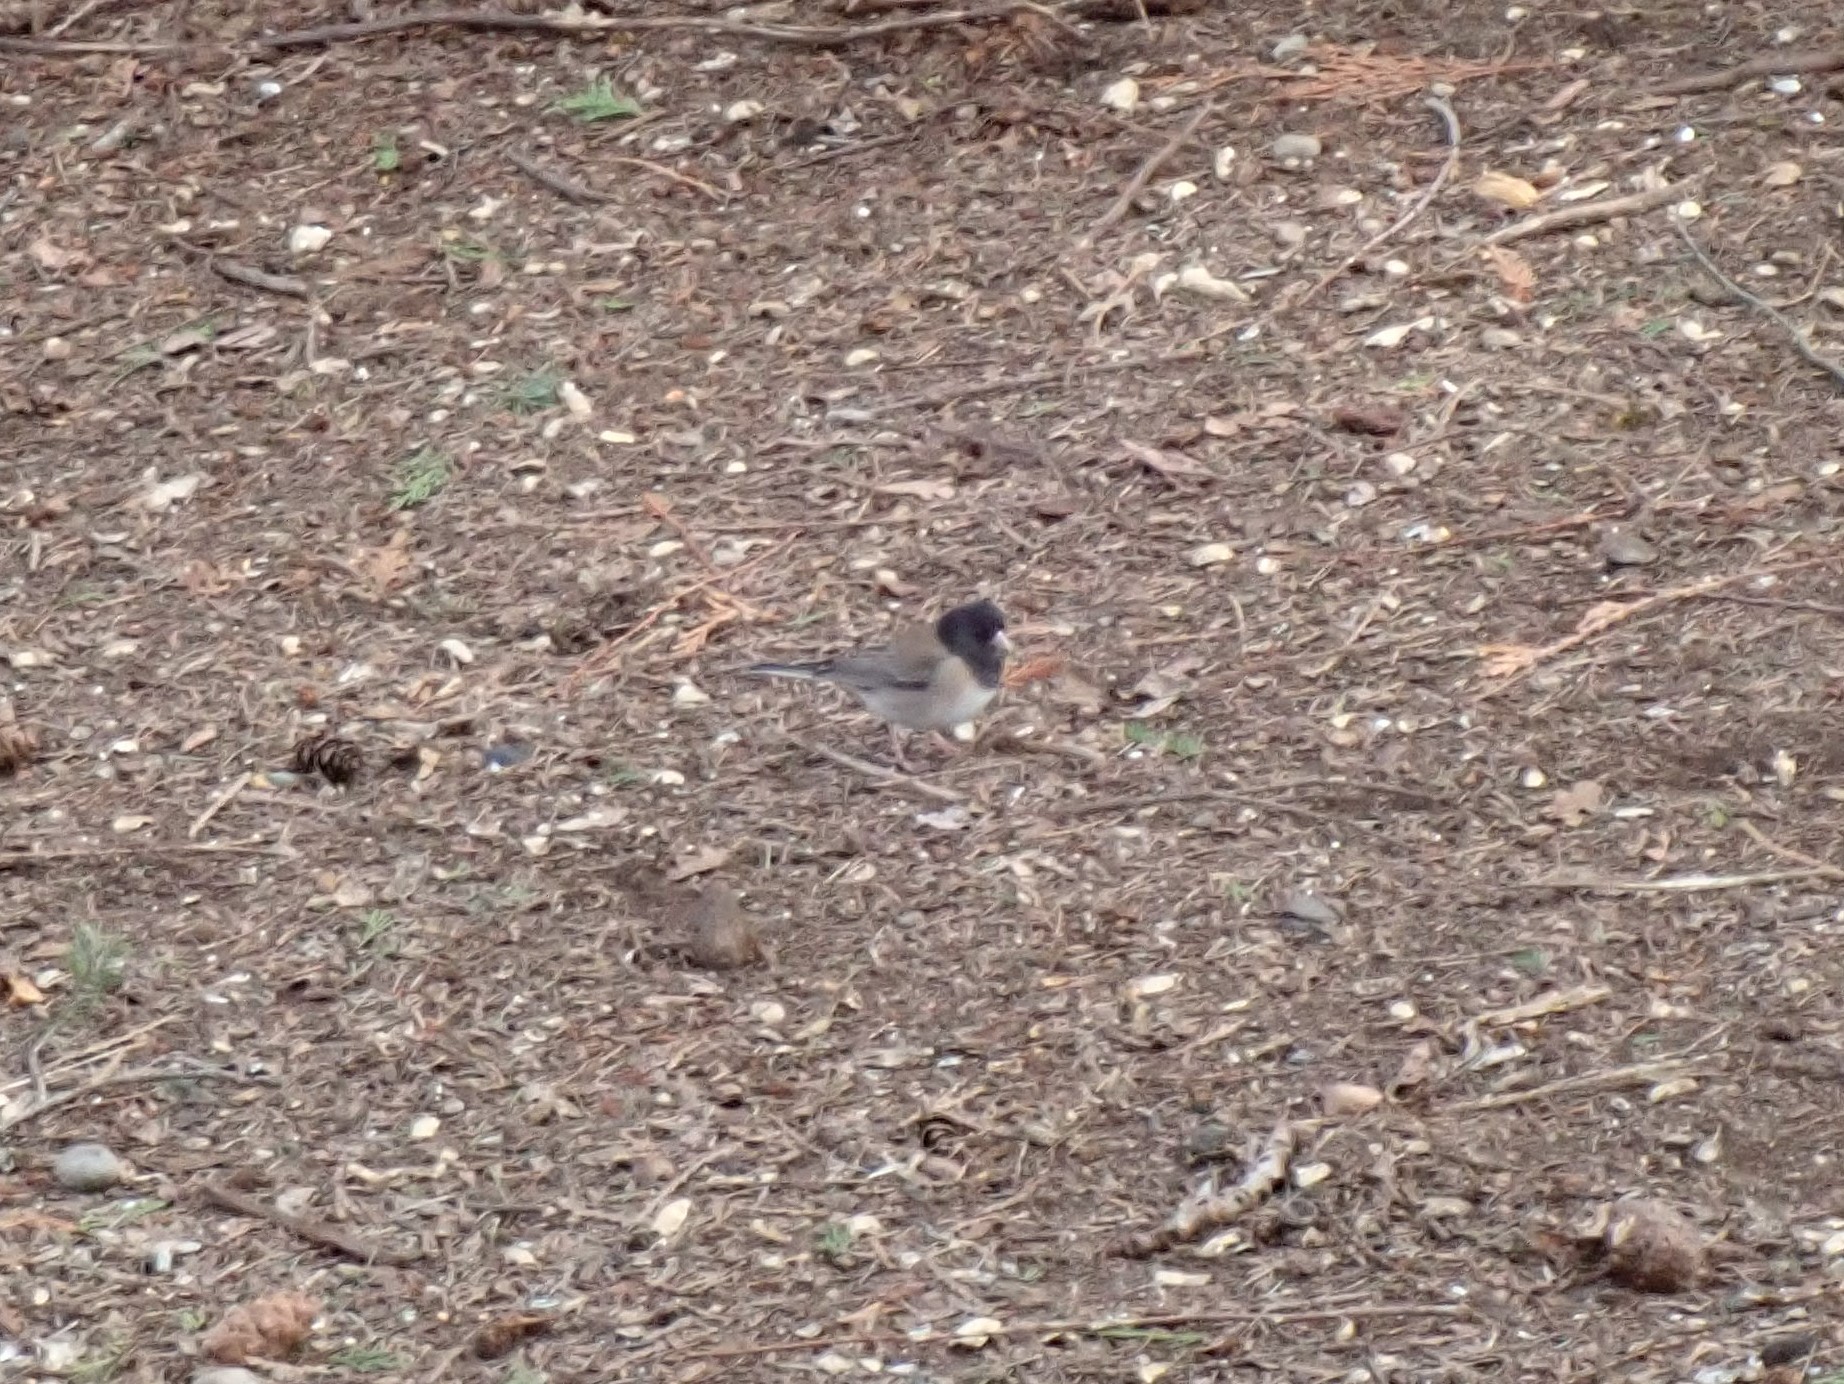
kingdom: Animalia
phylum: Chordata
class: Aves
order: Passeriformes
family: Passerellidae
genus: Junco
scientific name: Junco hyemalis
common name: Dark-eyed junco
